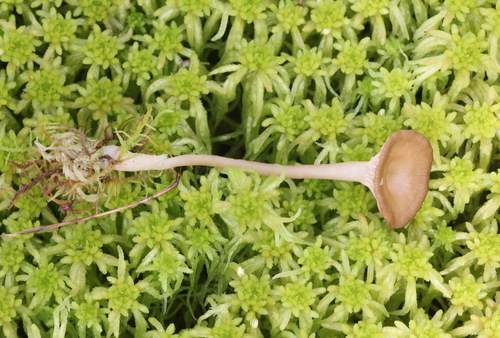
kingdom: Fungi
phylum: Basidiomycota
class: Agaricomycetes
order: Agaricales
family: Hygrophoraceae
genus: Arrhenia
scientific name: Arrhenia
